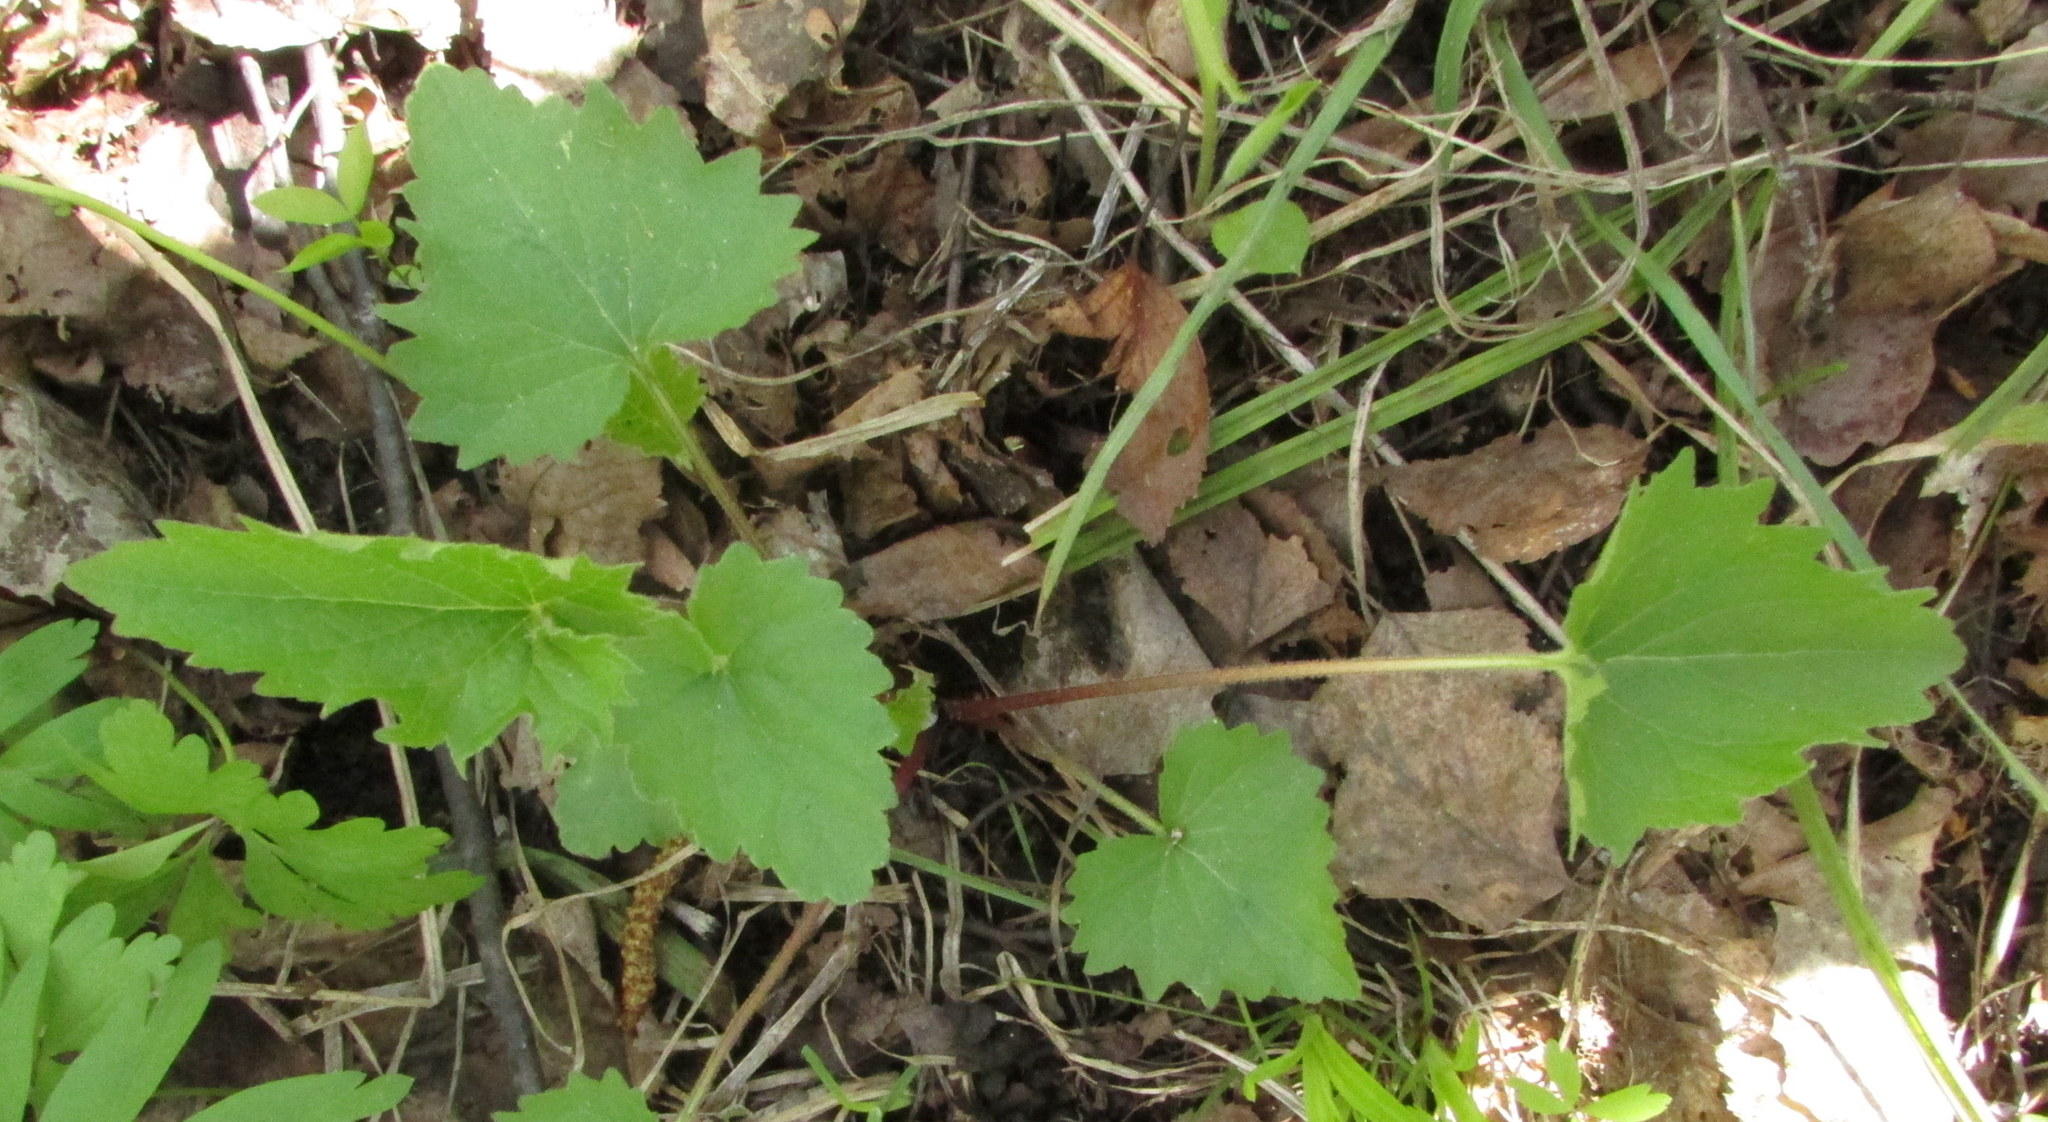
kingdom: Plantae
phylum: Tracheophyta
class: Magnoliopsida
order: Asterales
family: Campanulaceae
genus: Campanula
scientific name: Campanula trachelium
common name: Nettle-leaved bellflower
